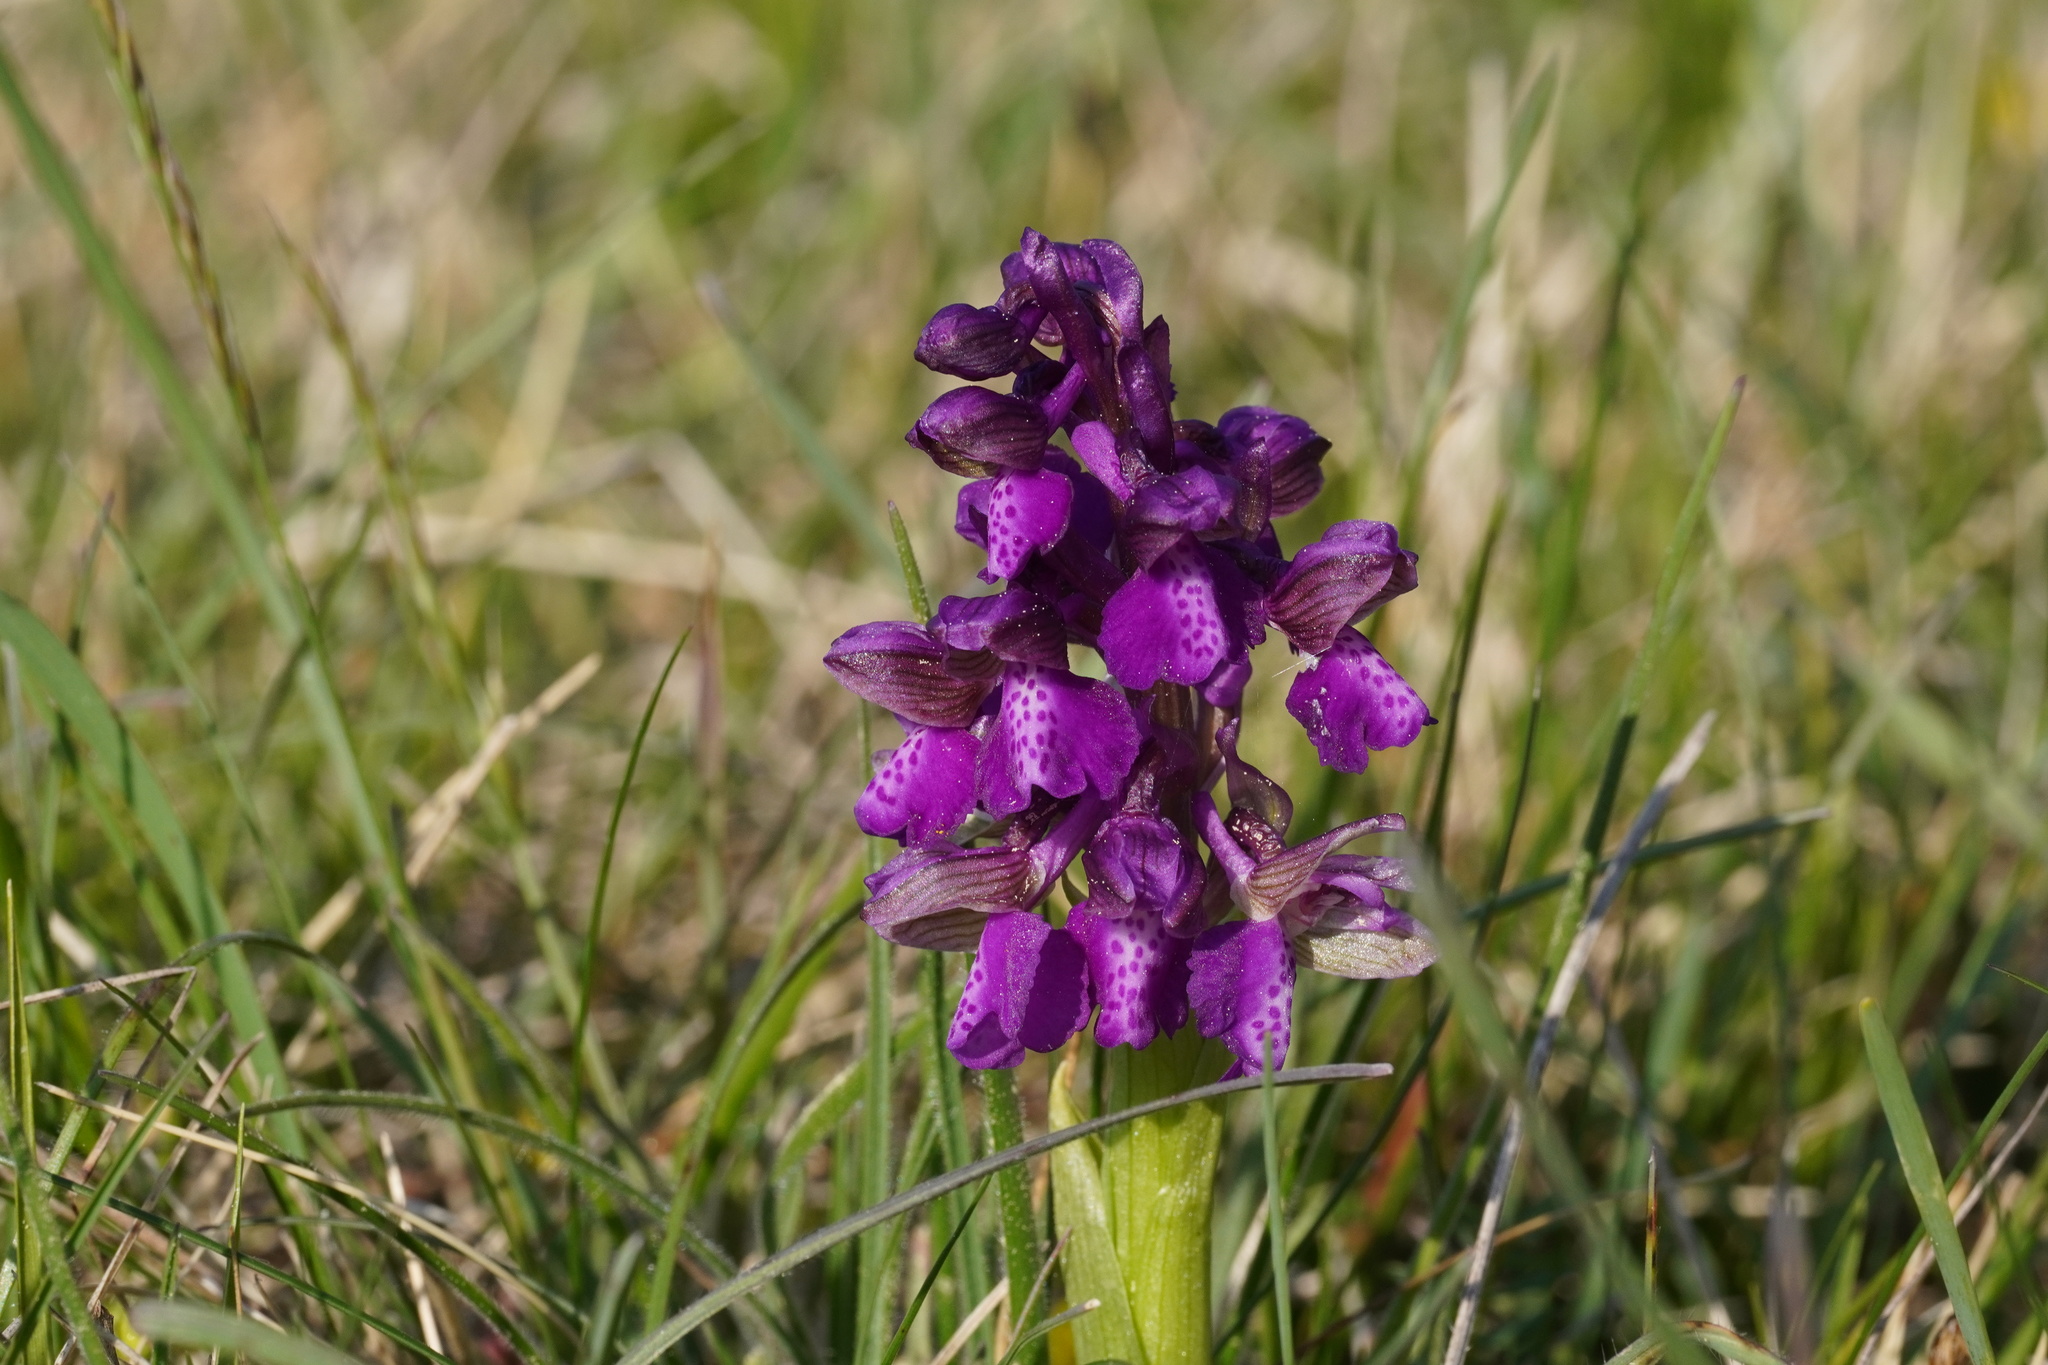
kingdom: Plantae
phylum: Tracheophyta
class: Liliopsida
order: Asparagales
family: Orchidaceae
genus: Anacamptis
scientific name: Anacamptis morio
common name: Green-winged orchid
